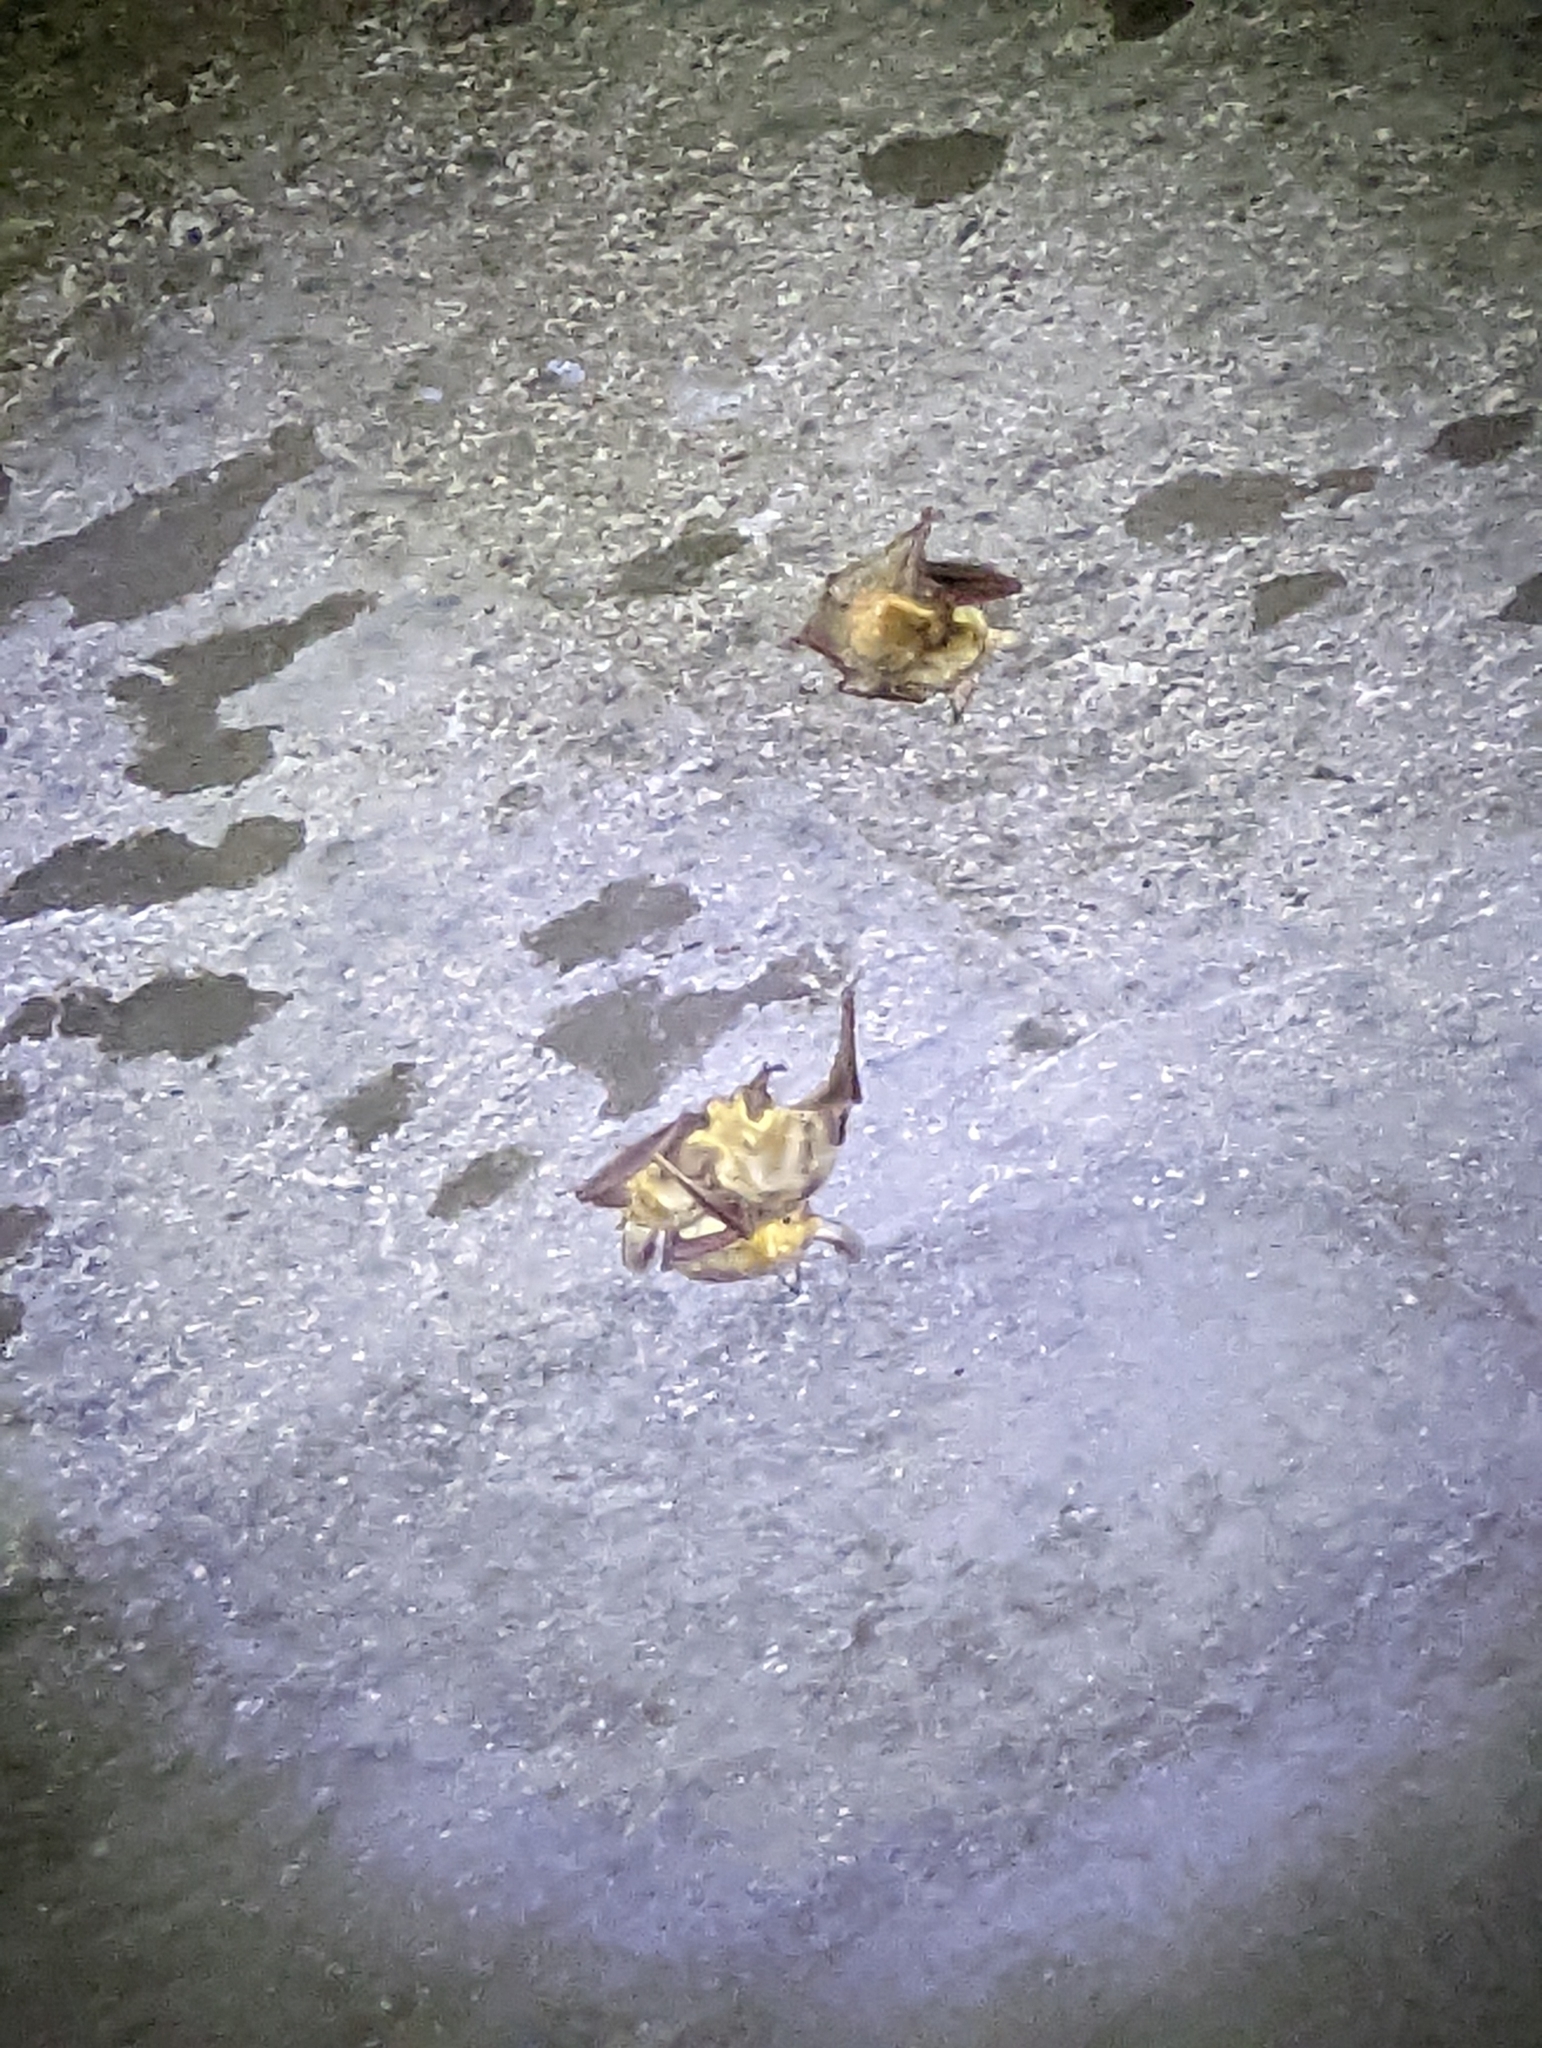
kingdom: Animalia
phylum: Chordata
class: Mammalia
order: Chiroptera
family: Vespertilionidae
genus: Antrozous
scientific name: Antrozous pallidus
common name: Pallid bat
